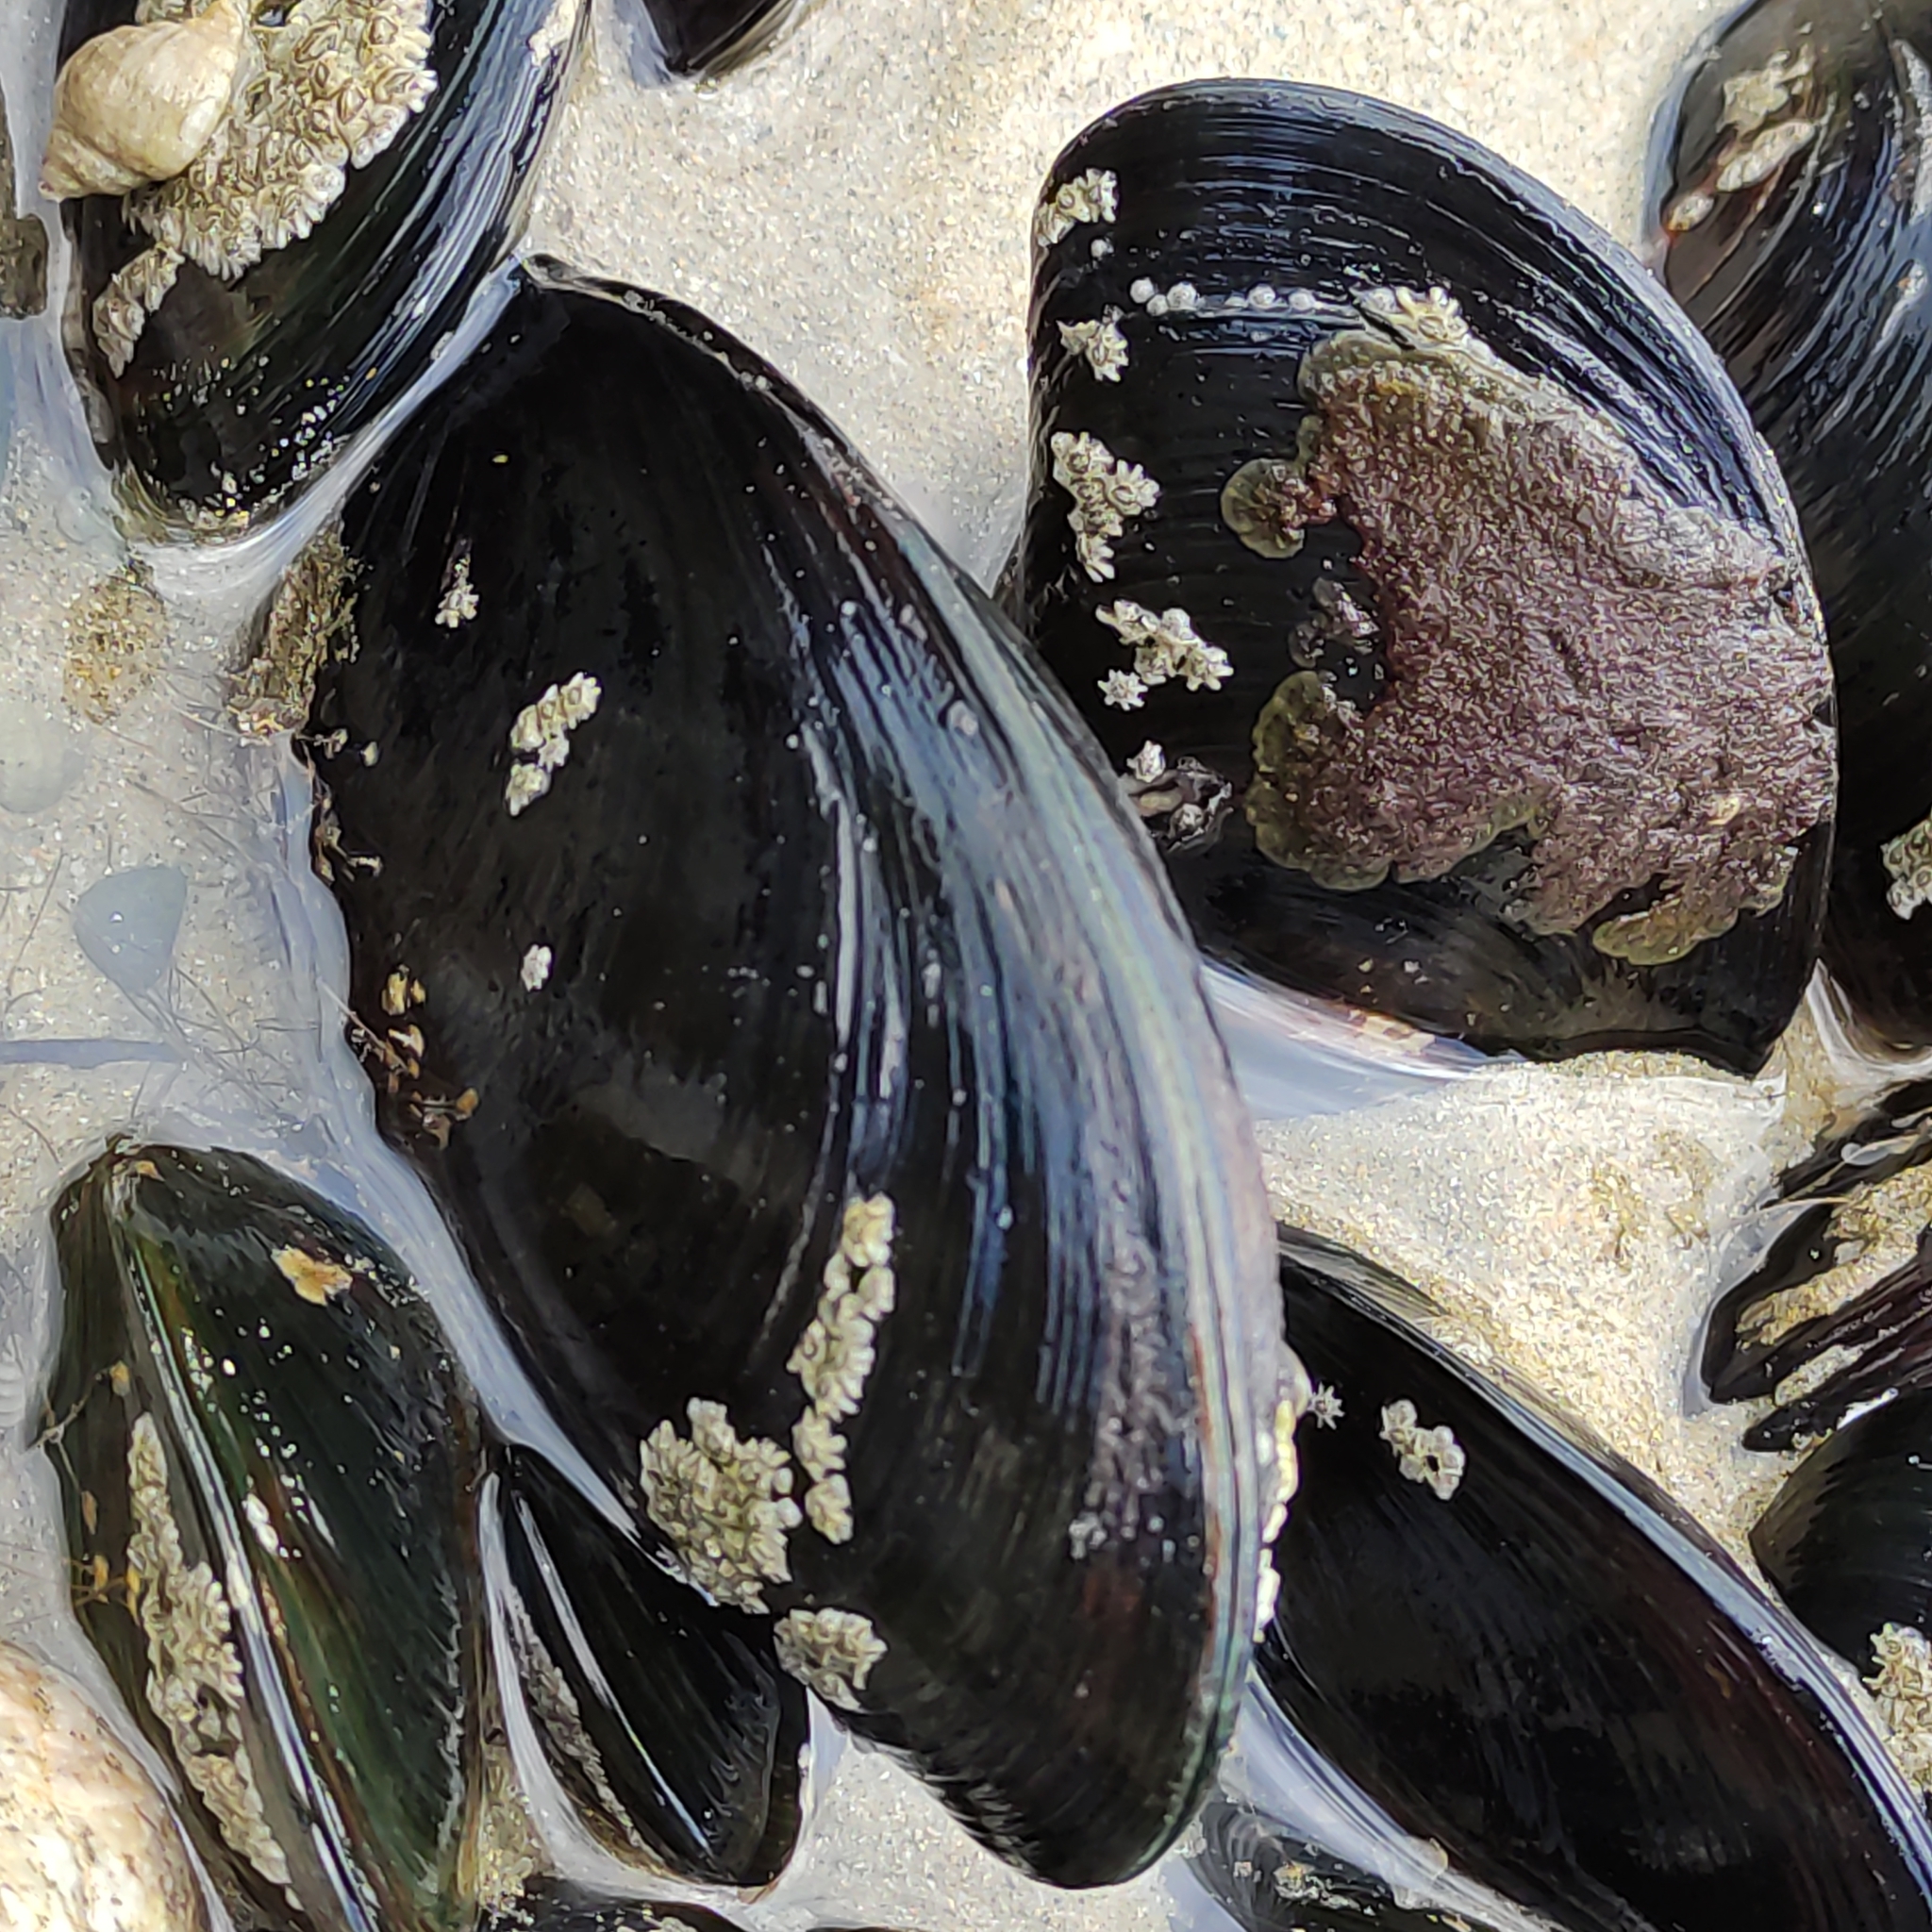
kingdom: Animalia
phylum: Mollusca
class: Bivalvia
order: Mytilida
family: Mytilidae
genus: Mytilus
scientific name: Mytilus planulatus
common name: Australian mussel
